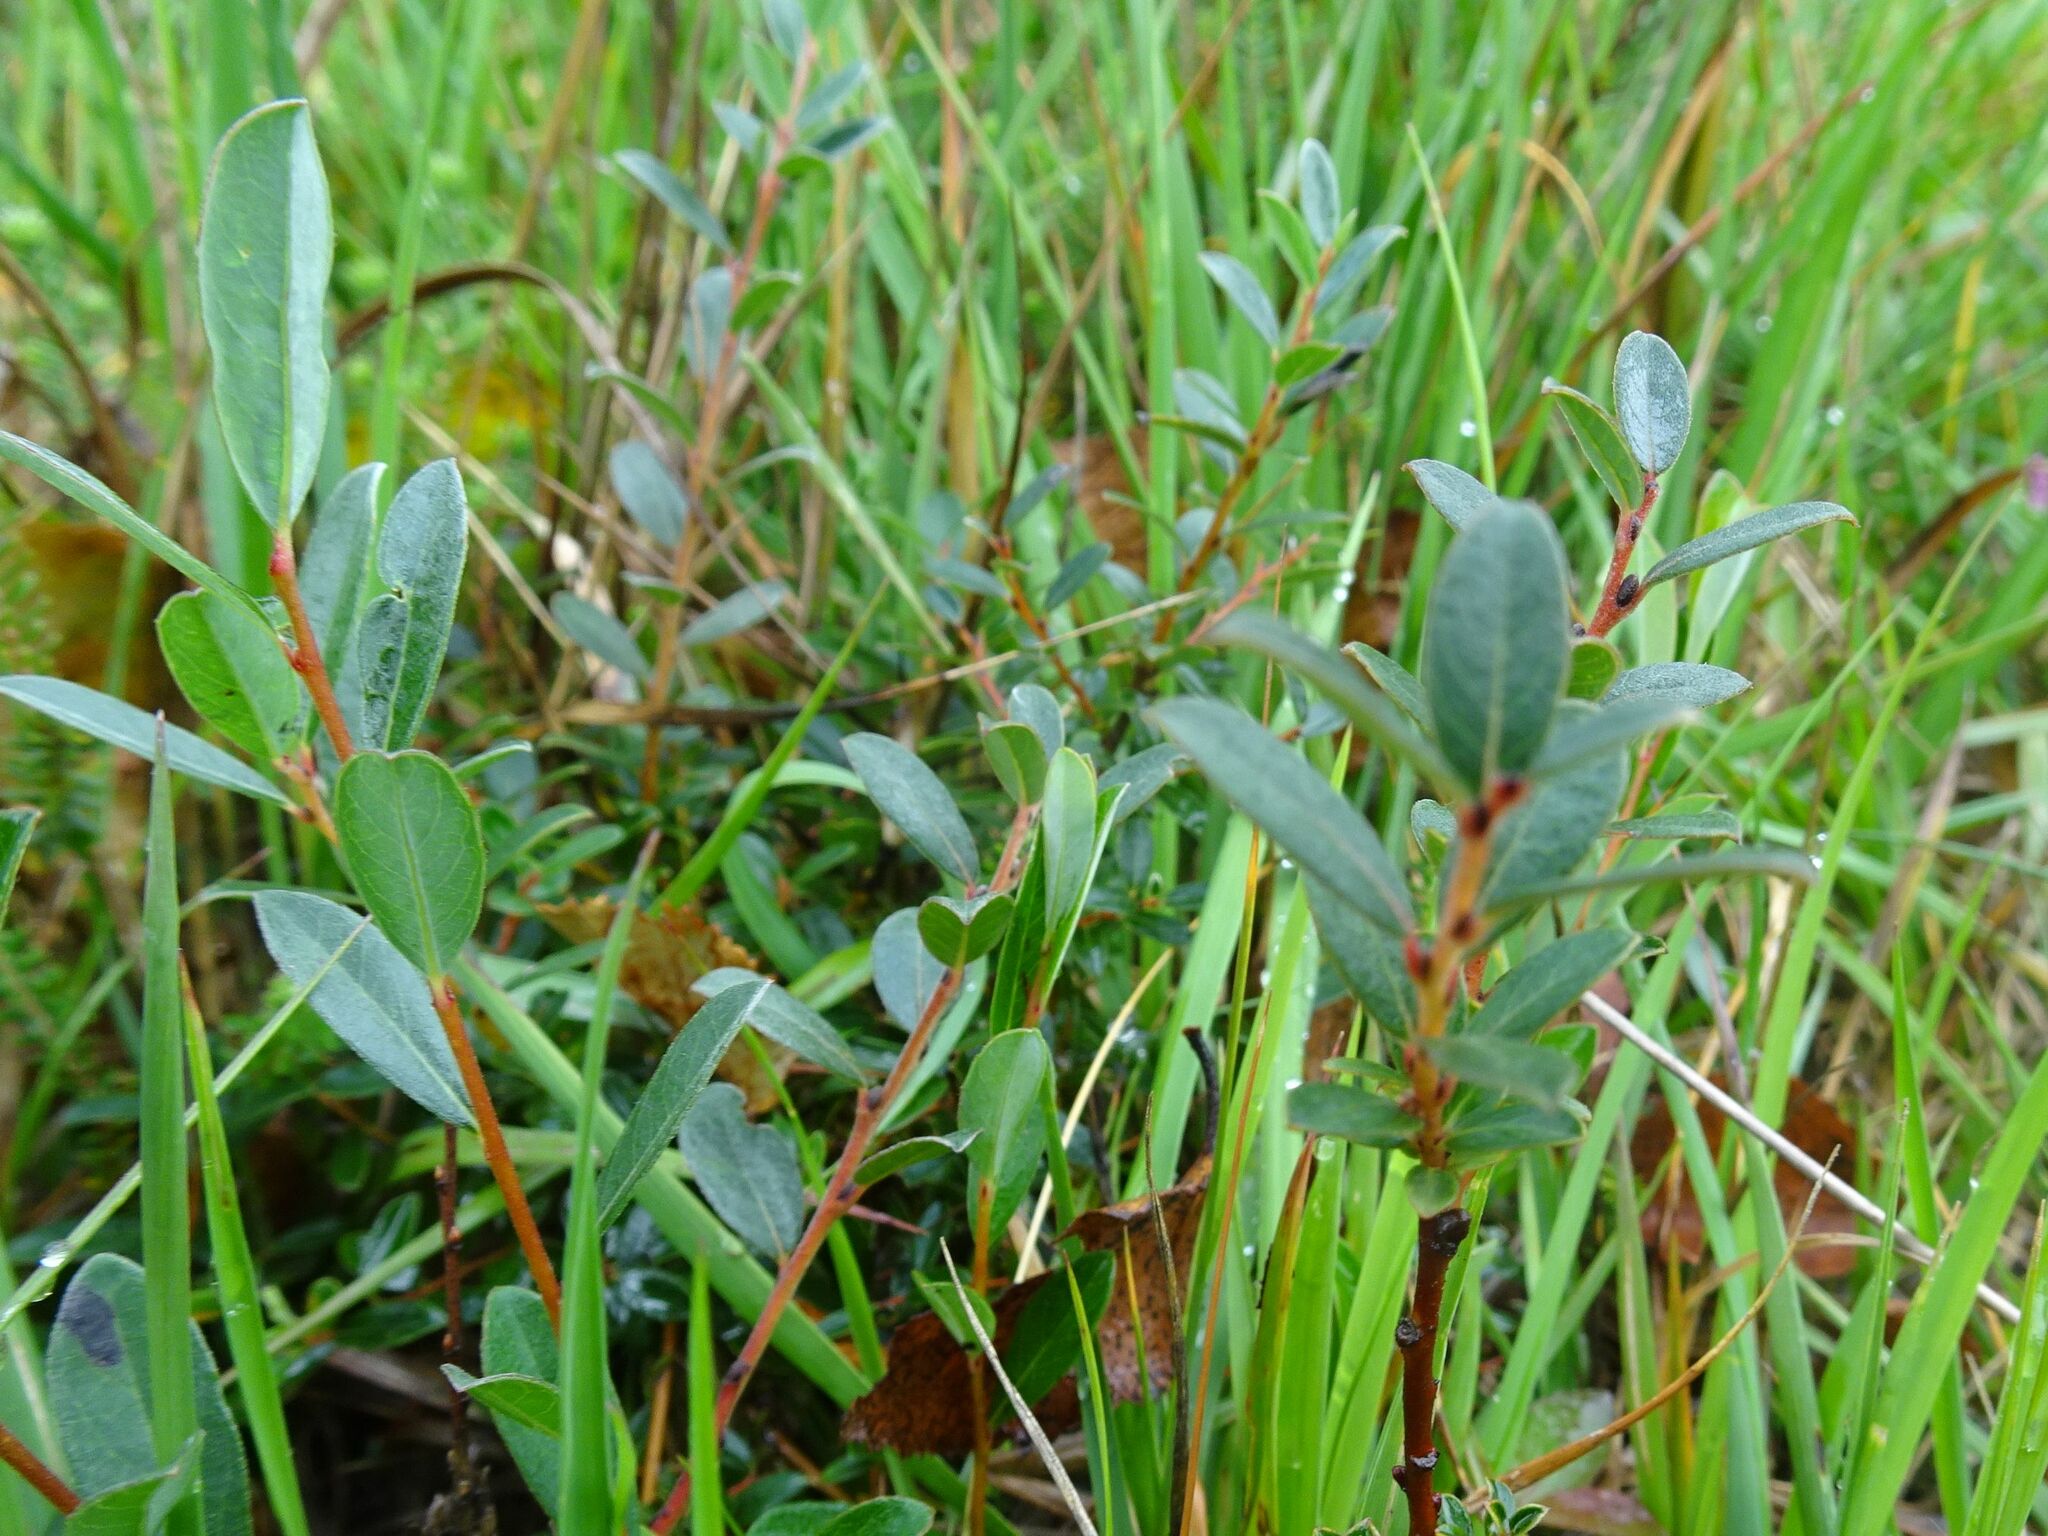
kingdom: Plantae
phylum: Tracheophyta
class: Magnoliopsida
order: Malpighiales
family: Salicaceae
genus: Salix
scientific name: Salix repens
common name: Creeping willow
